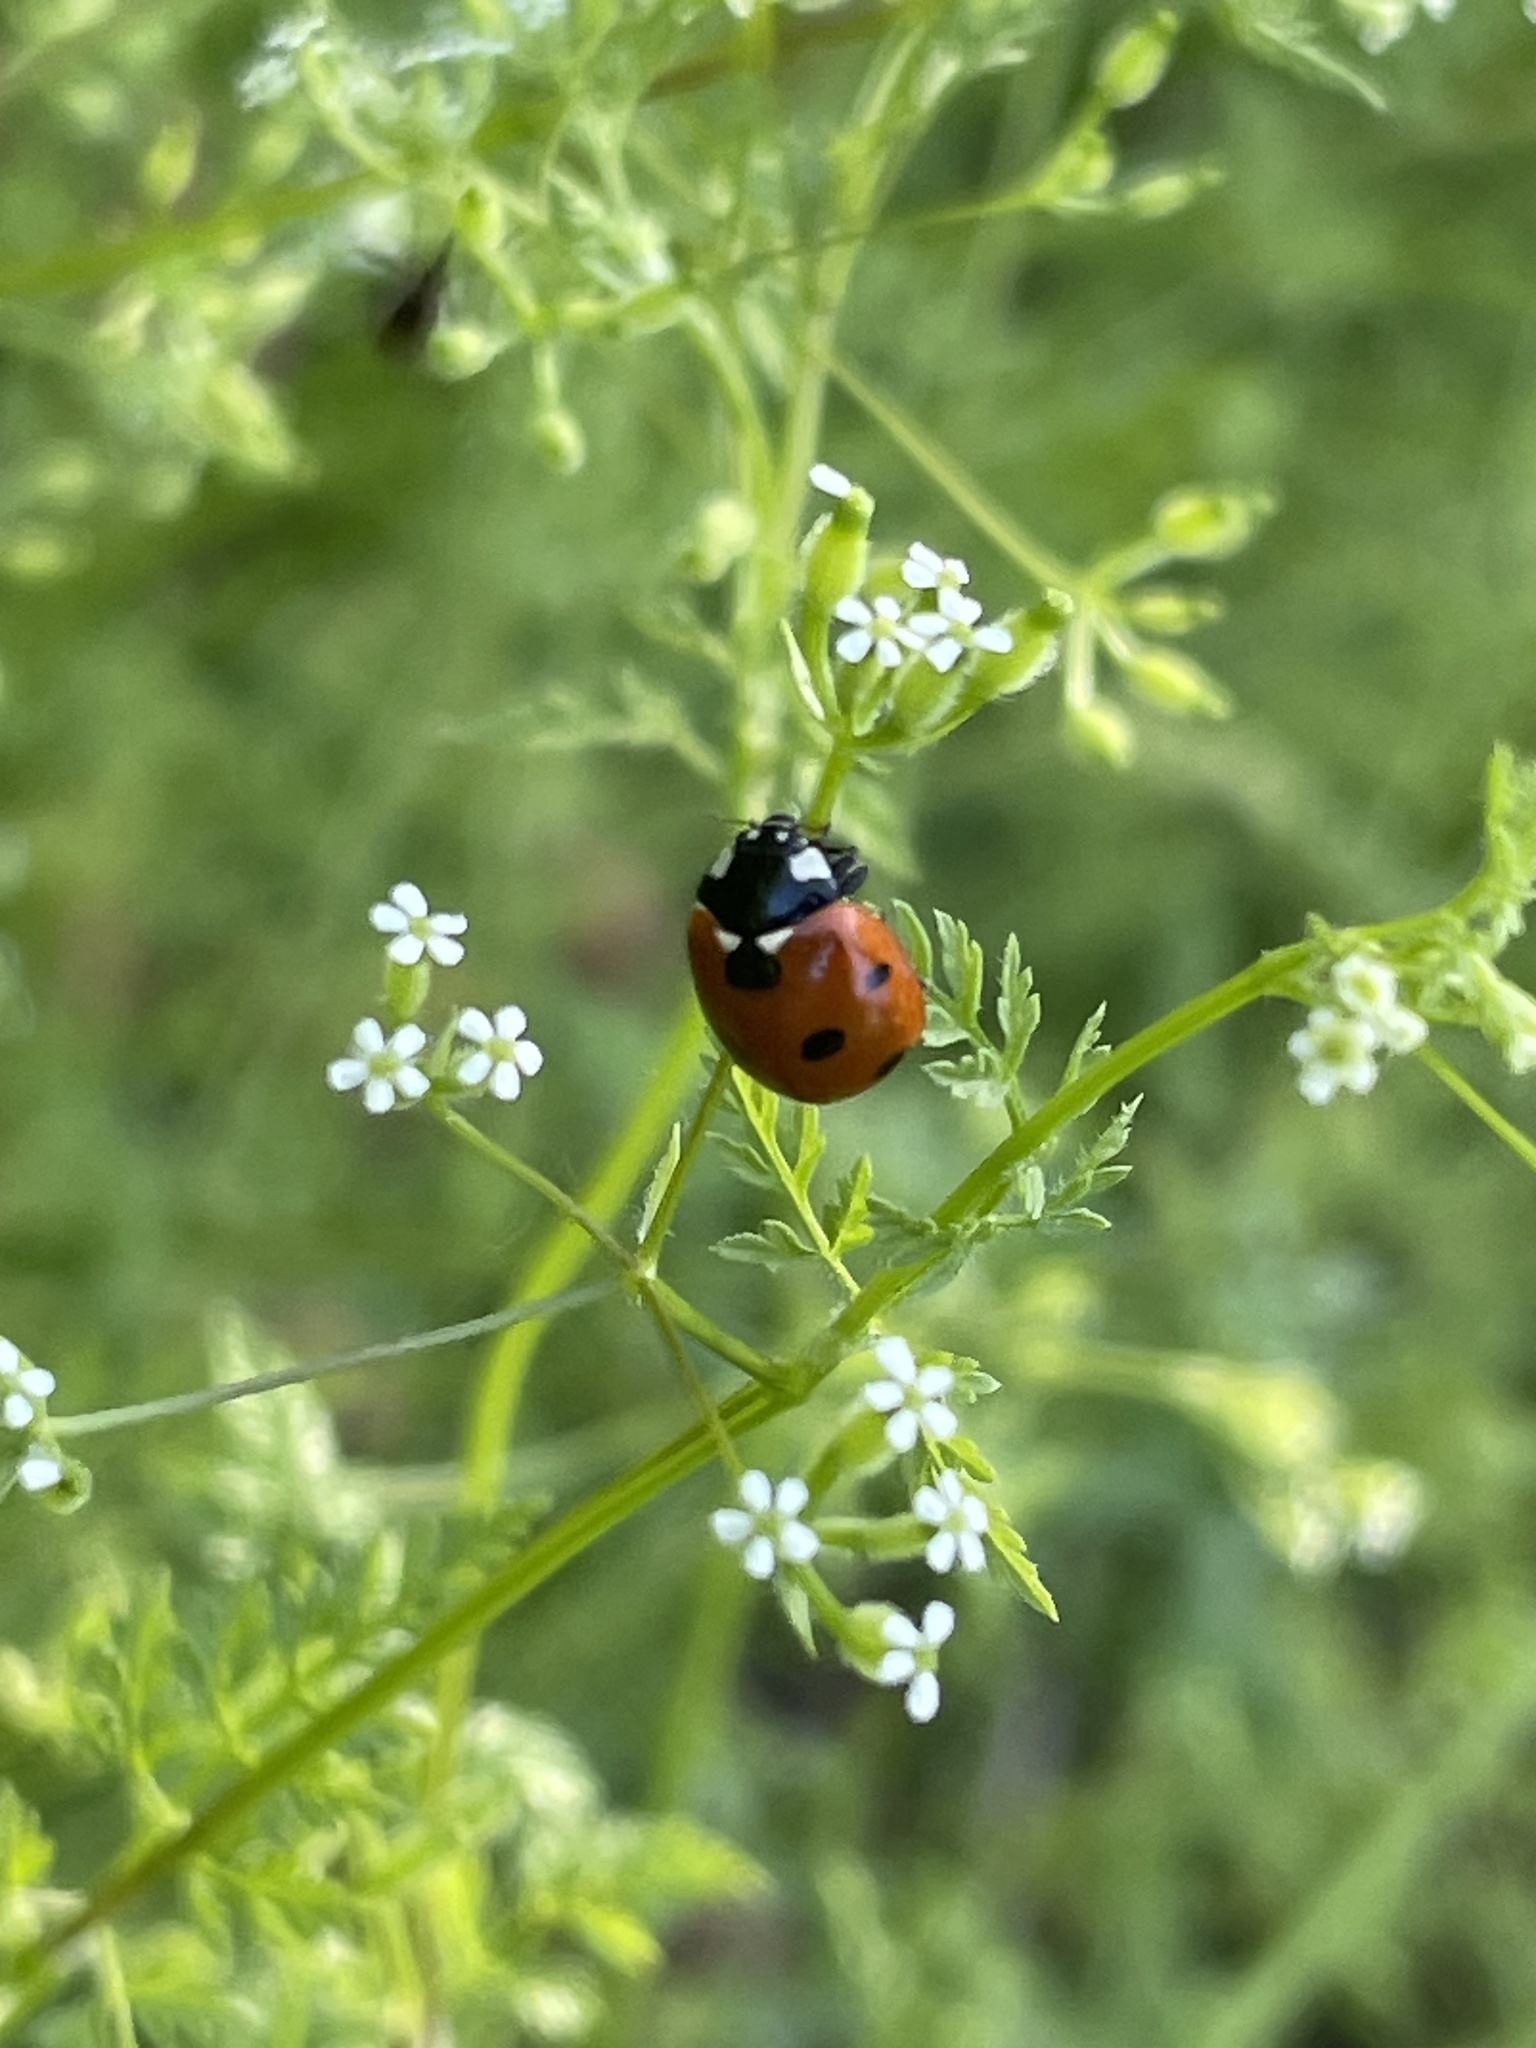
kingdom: Animalia
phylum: Arthropoda
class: Insecta
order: Coleoptera
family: Coccinellidae
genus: Coccinella
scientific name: Coccinella septempunctata
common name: Sevenspotted lady beetle
